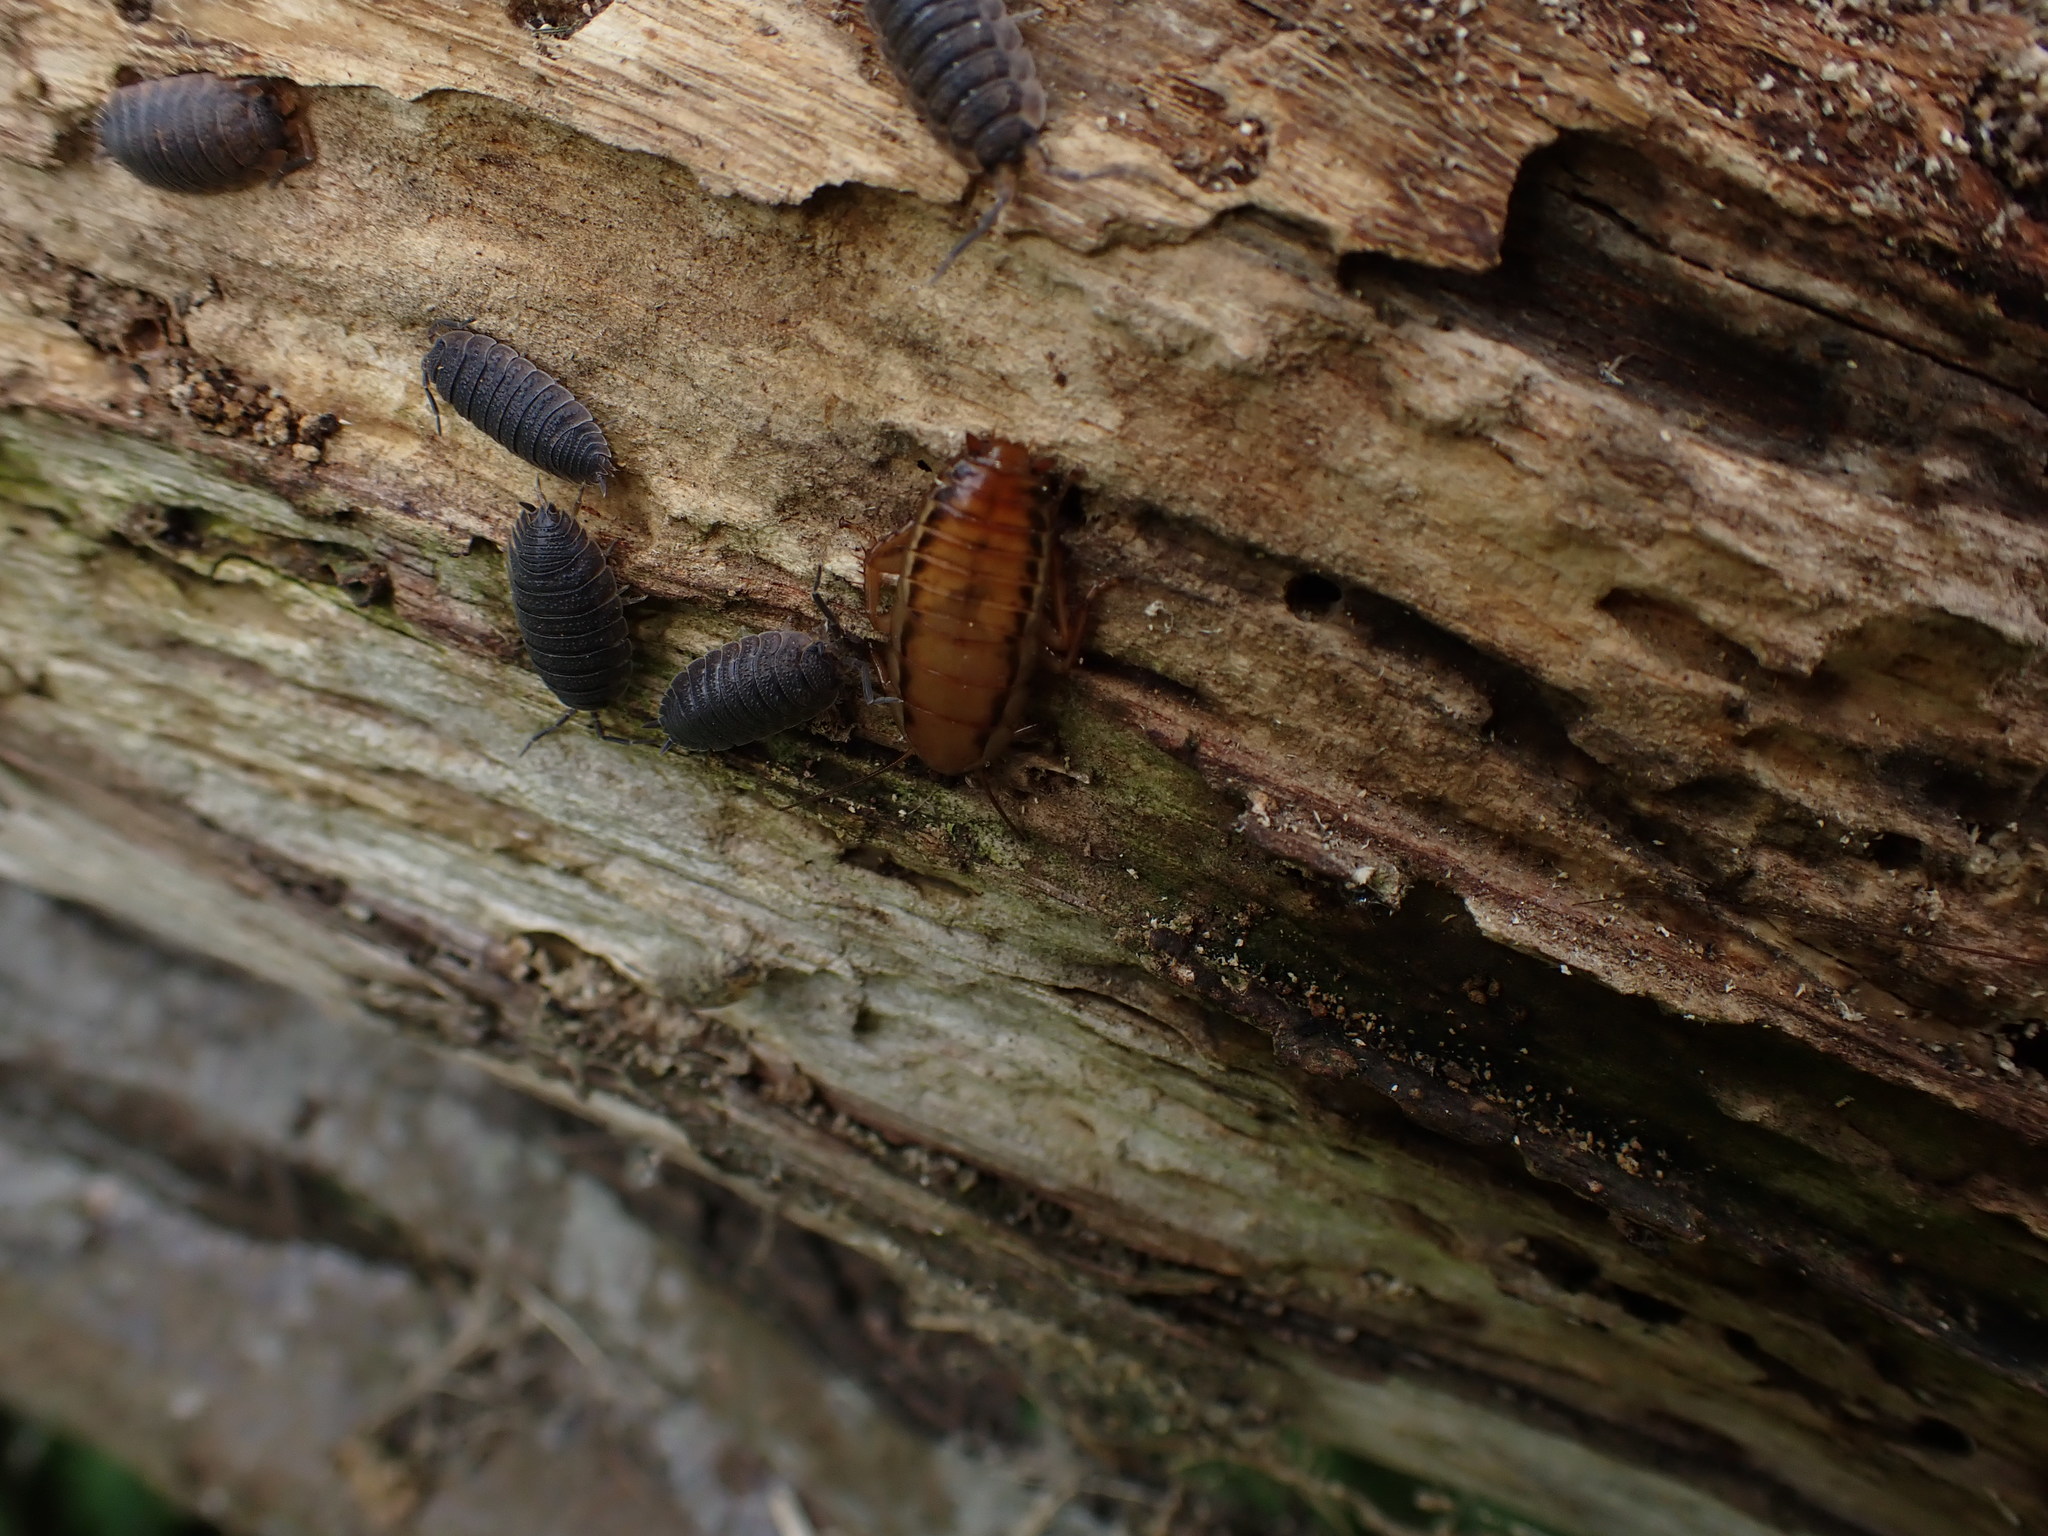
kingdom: Animalia
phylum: Arthropoda
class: Insecta
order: Blattodea
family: Blattidae
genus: Drymaplaneta
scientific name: Drymaplaneta heydeniana
